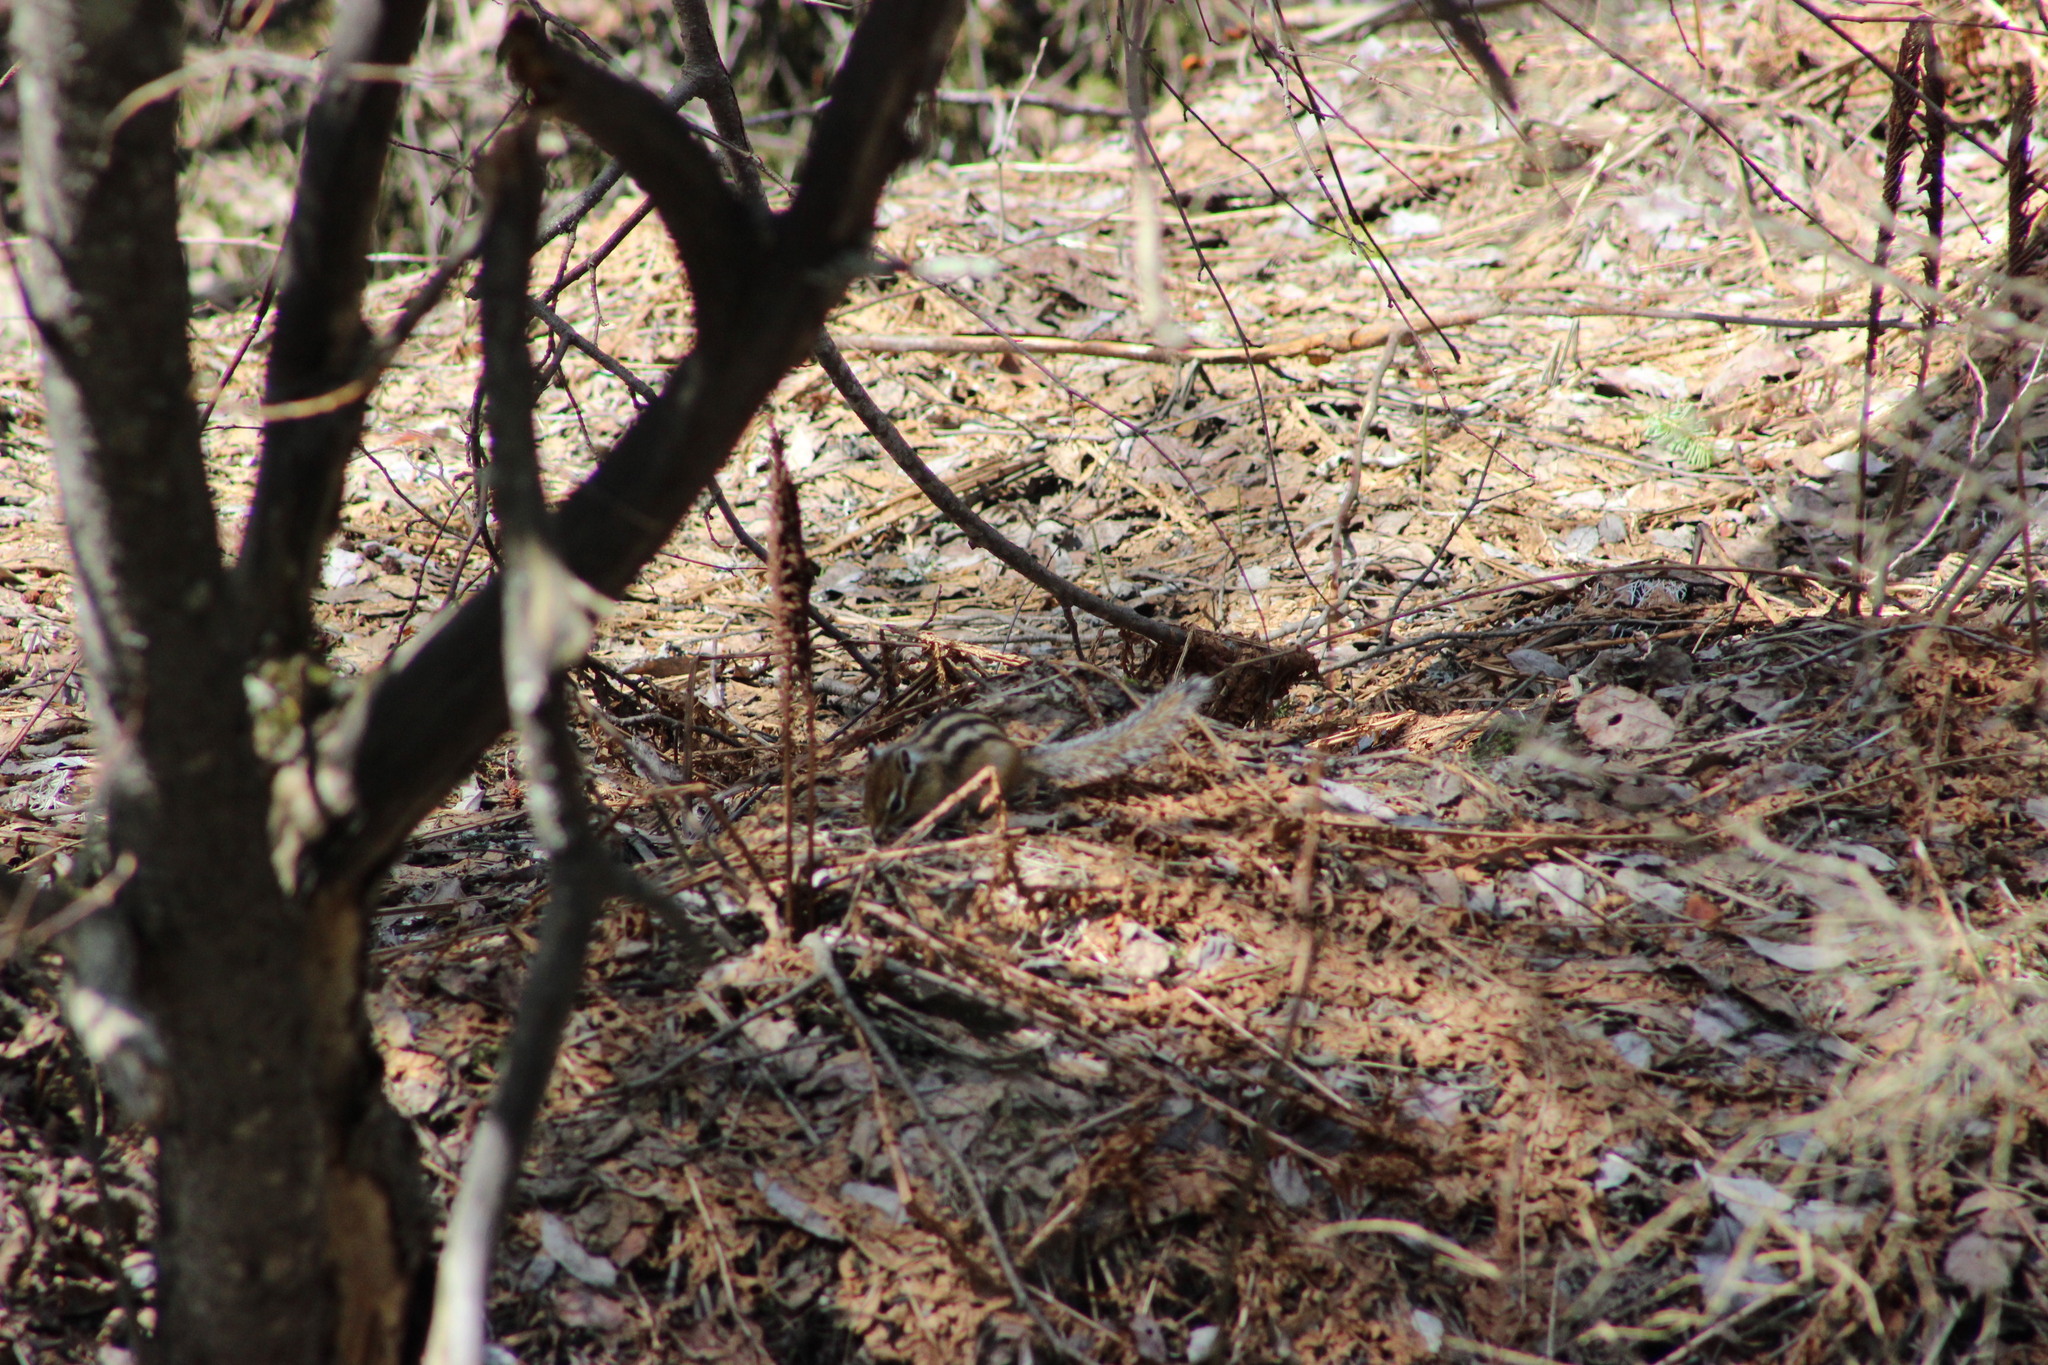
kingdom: Animalia
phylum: Chordata
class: Mammalia
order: Rodentia
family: Sciuridae
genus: Tamias
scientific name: Tamias sibiricus
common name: Siberian chipmunk
